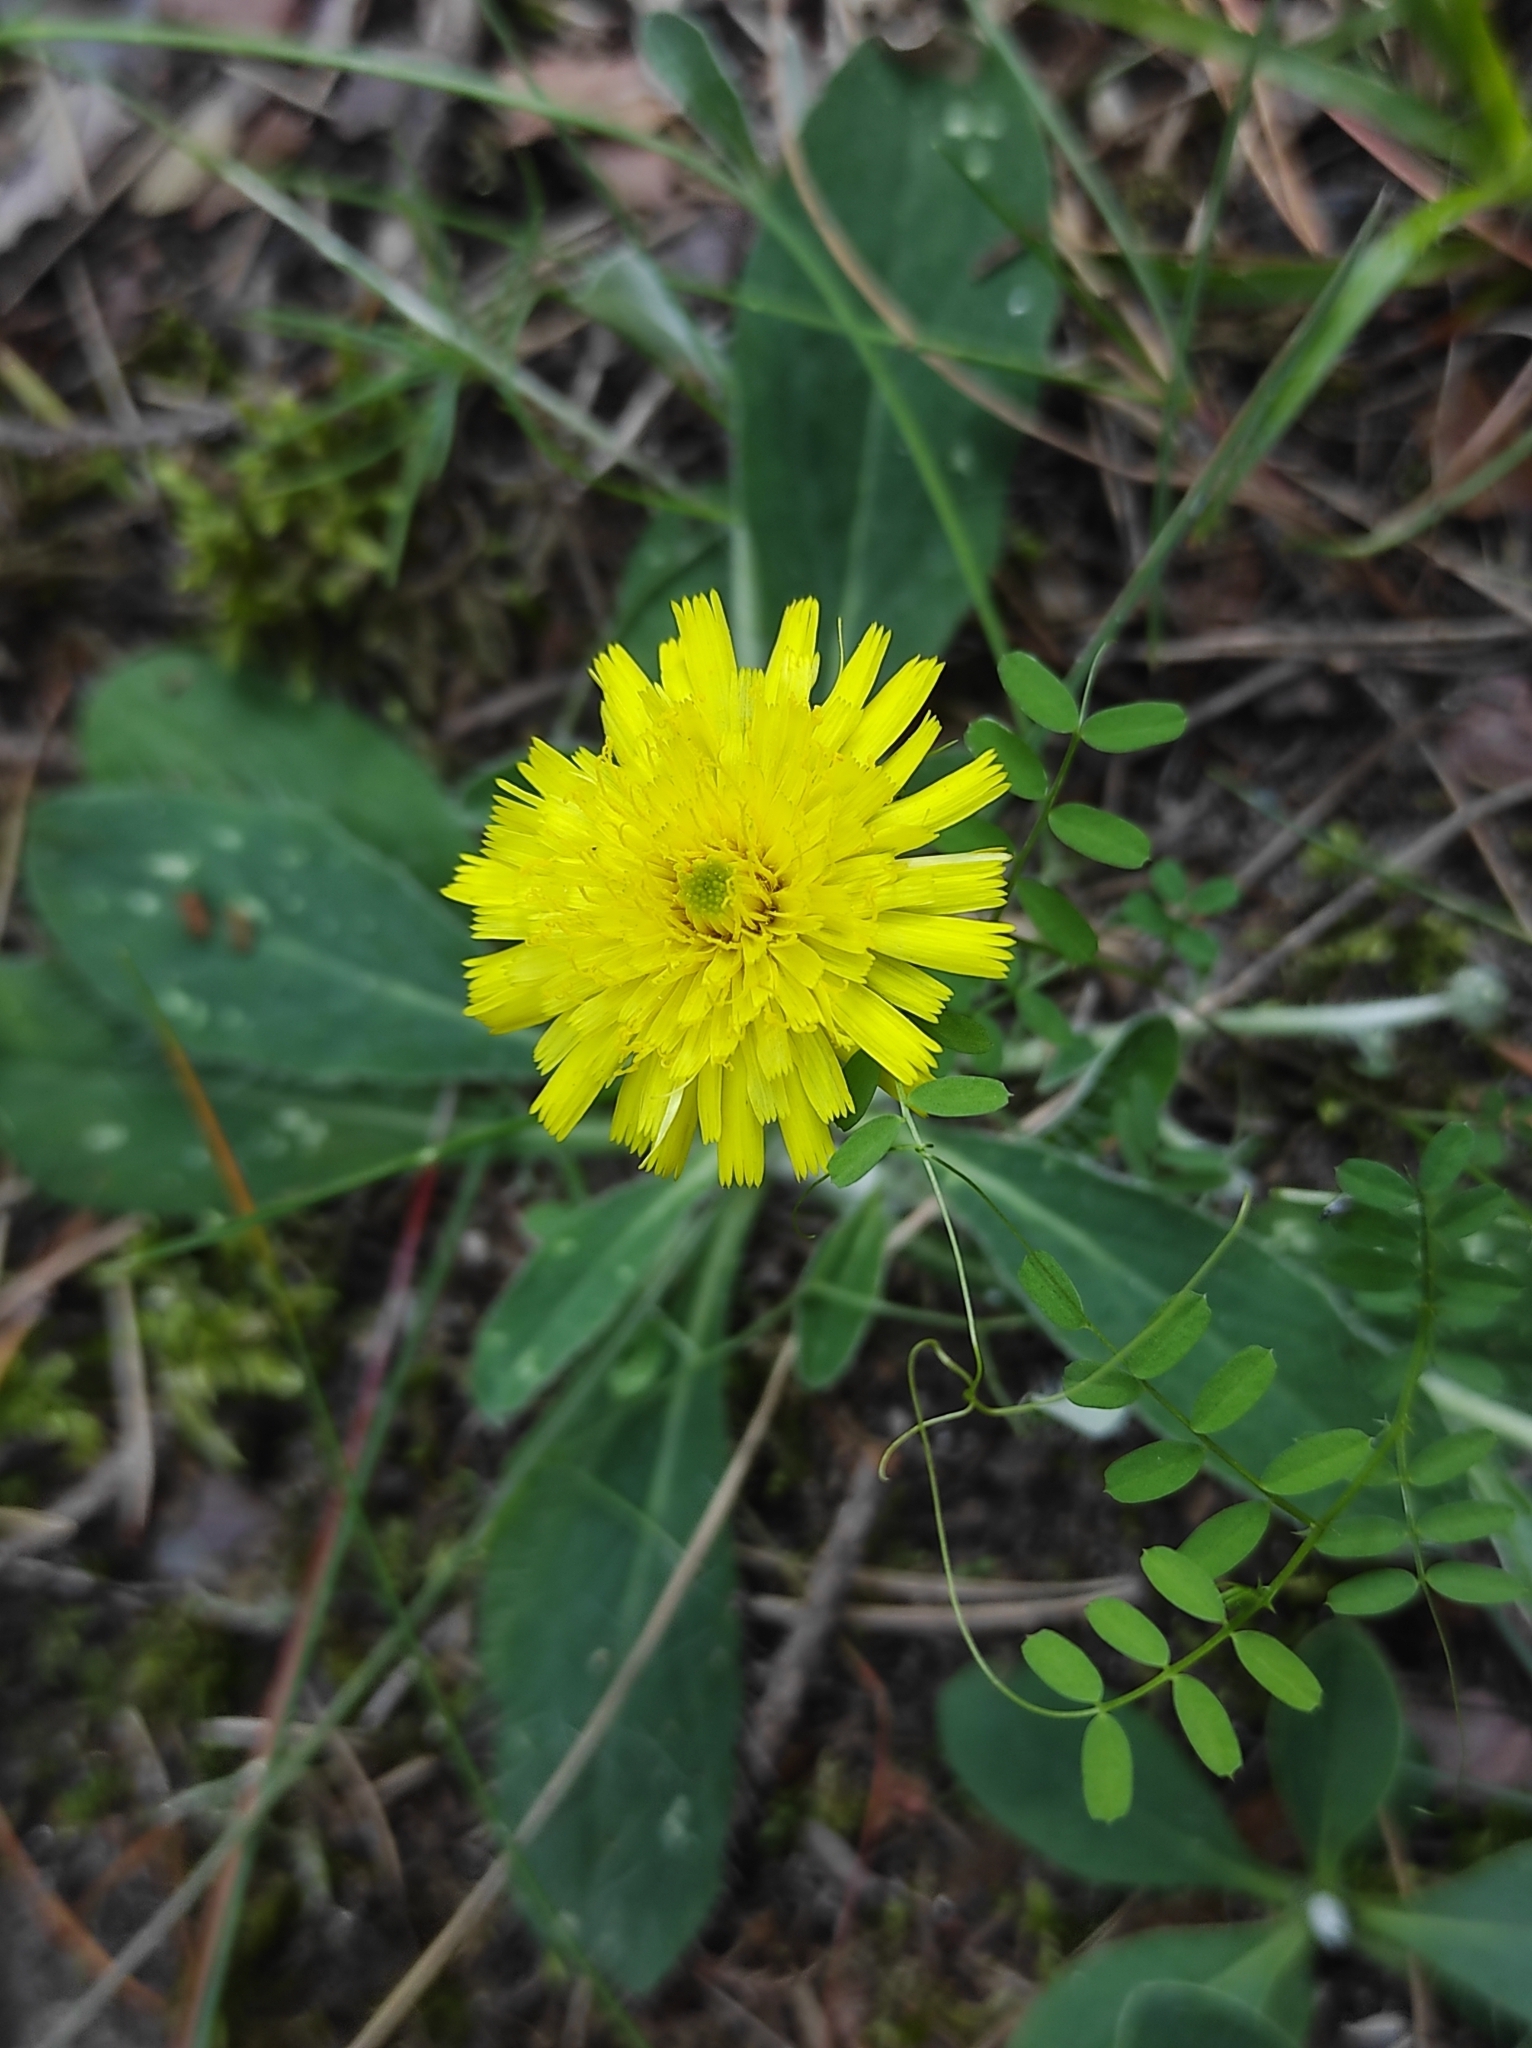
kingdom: Plantae
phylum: Tracheophyta
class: Magnoliopsida
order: Asterales
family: Asteraceae
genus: Pilosella
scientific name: Pilosella officinarum
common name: Mouse-ear hawkweed
